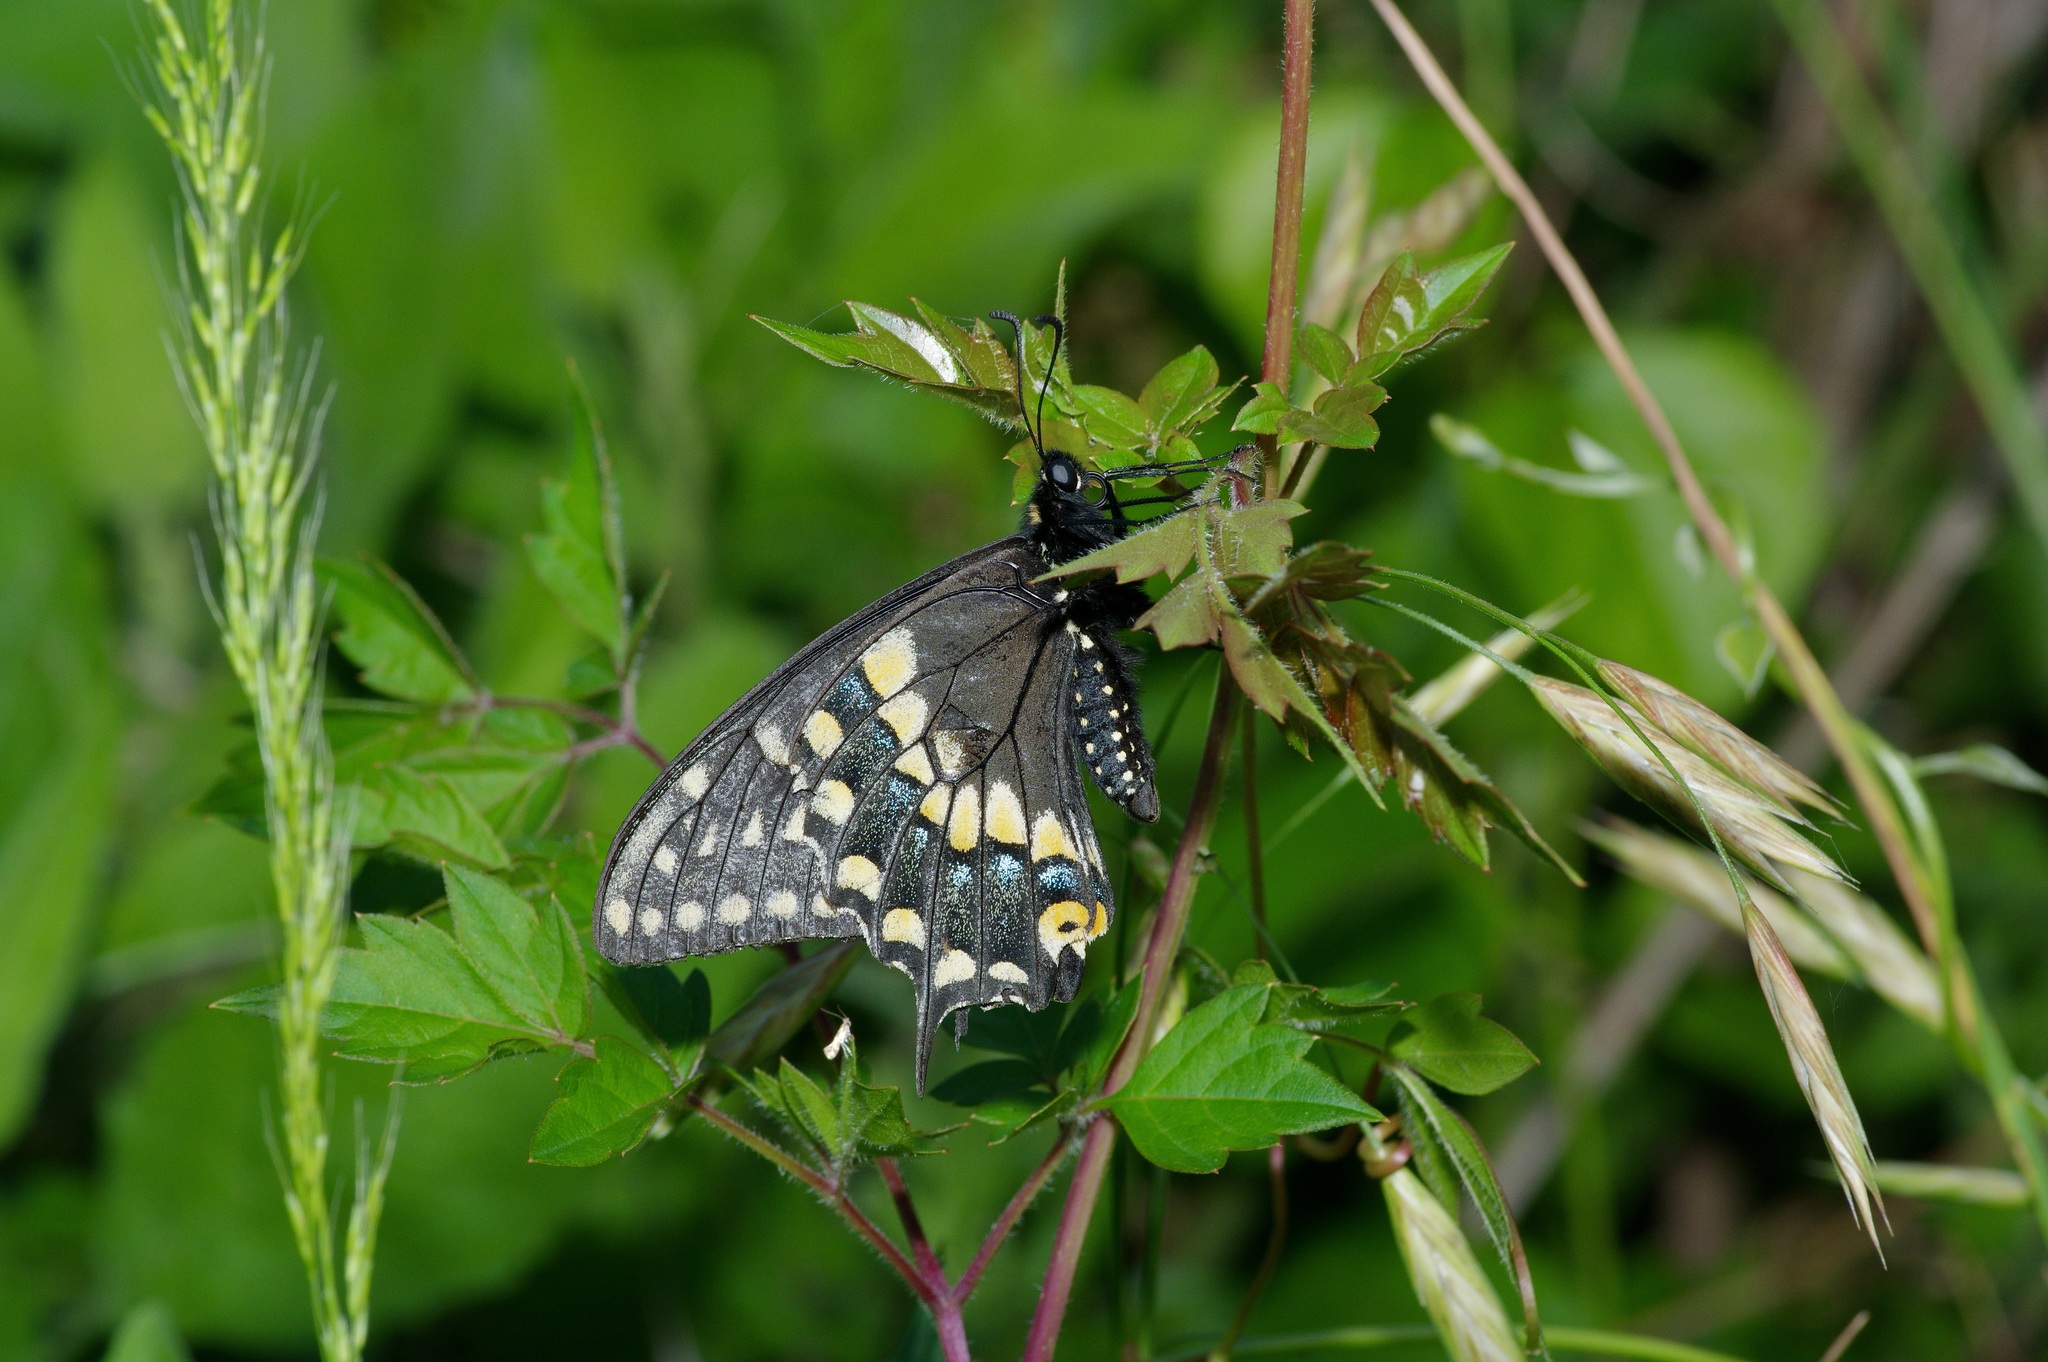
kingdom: Animalia
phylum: Arthropoda
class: Insecta
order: Lepidoptera
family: Papilionidae
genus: Papilio
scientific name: Papilio polyxenes
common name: Black swallowtail
